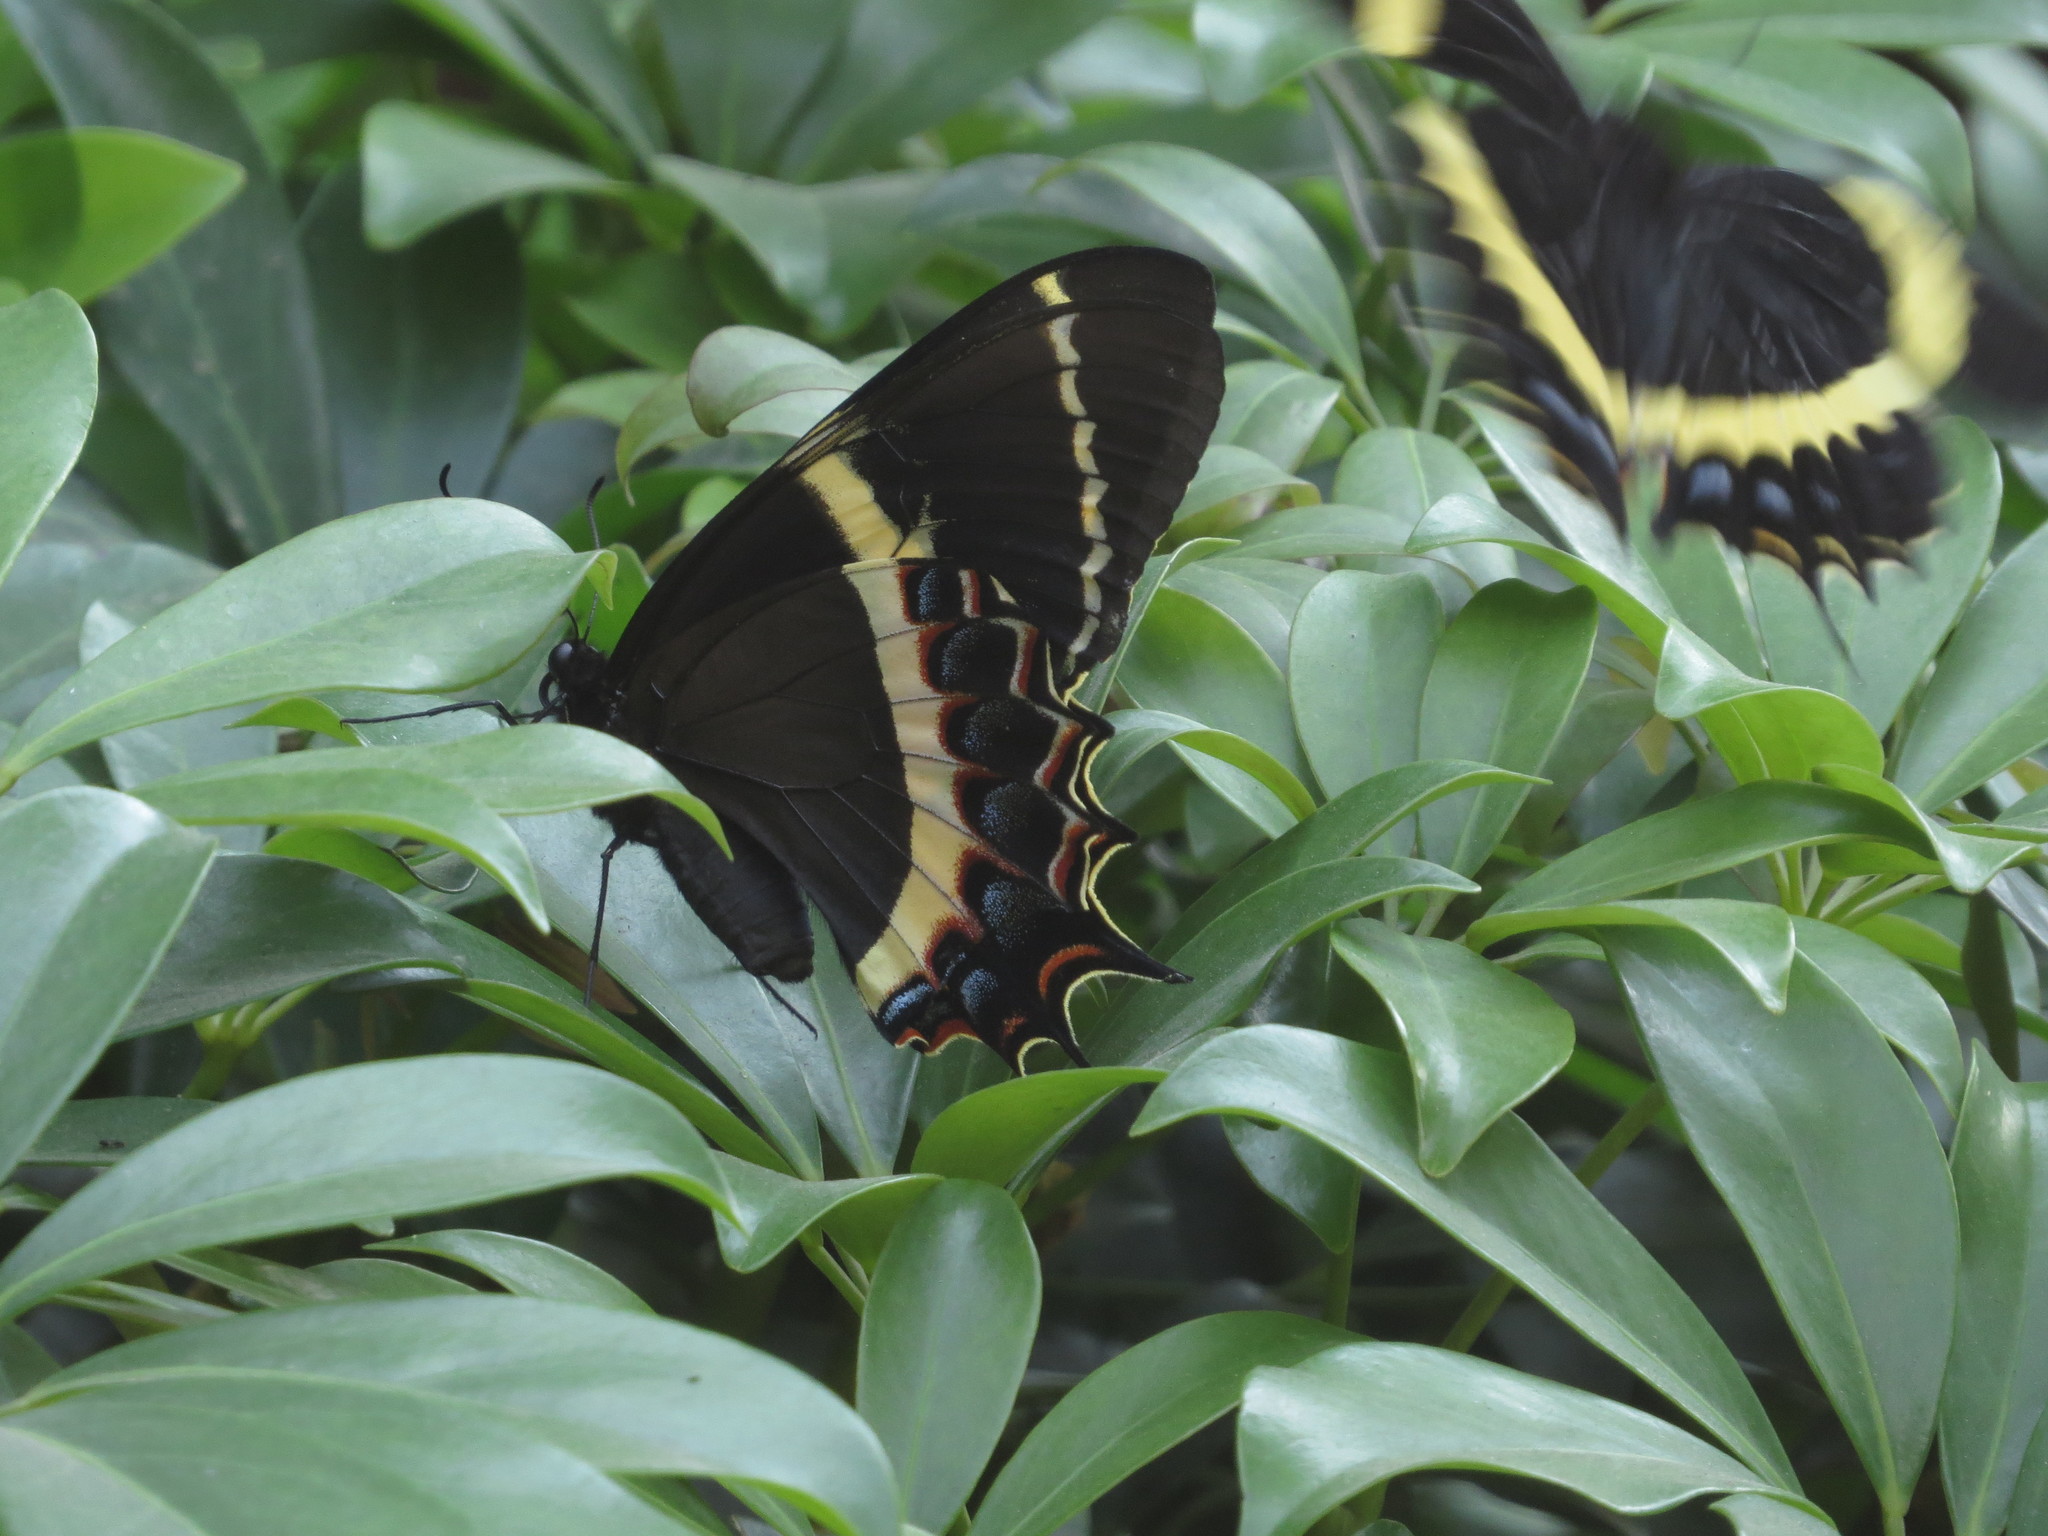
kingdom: Animalia
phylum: Arthropoda
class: Insecta
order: Lepidoptera
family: Papilionidae
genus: Papilio
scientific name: Papilio garamas
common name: Magnificent swallowtail
